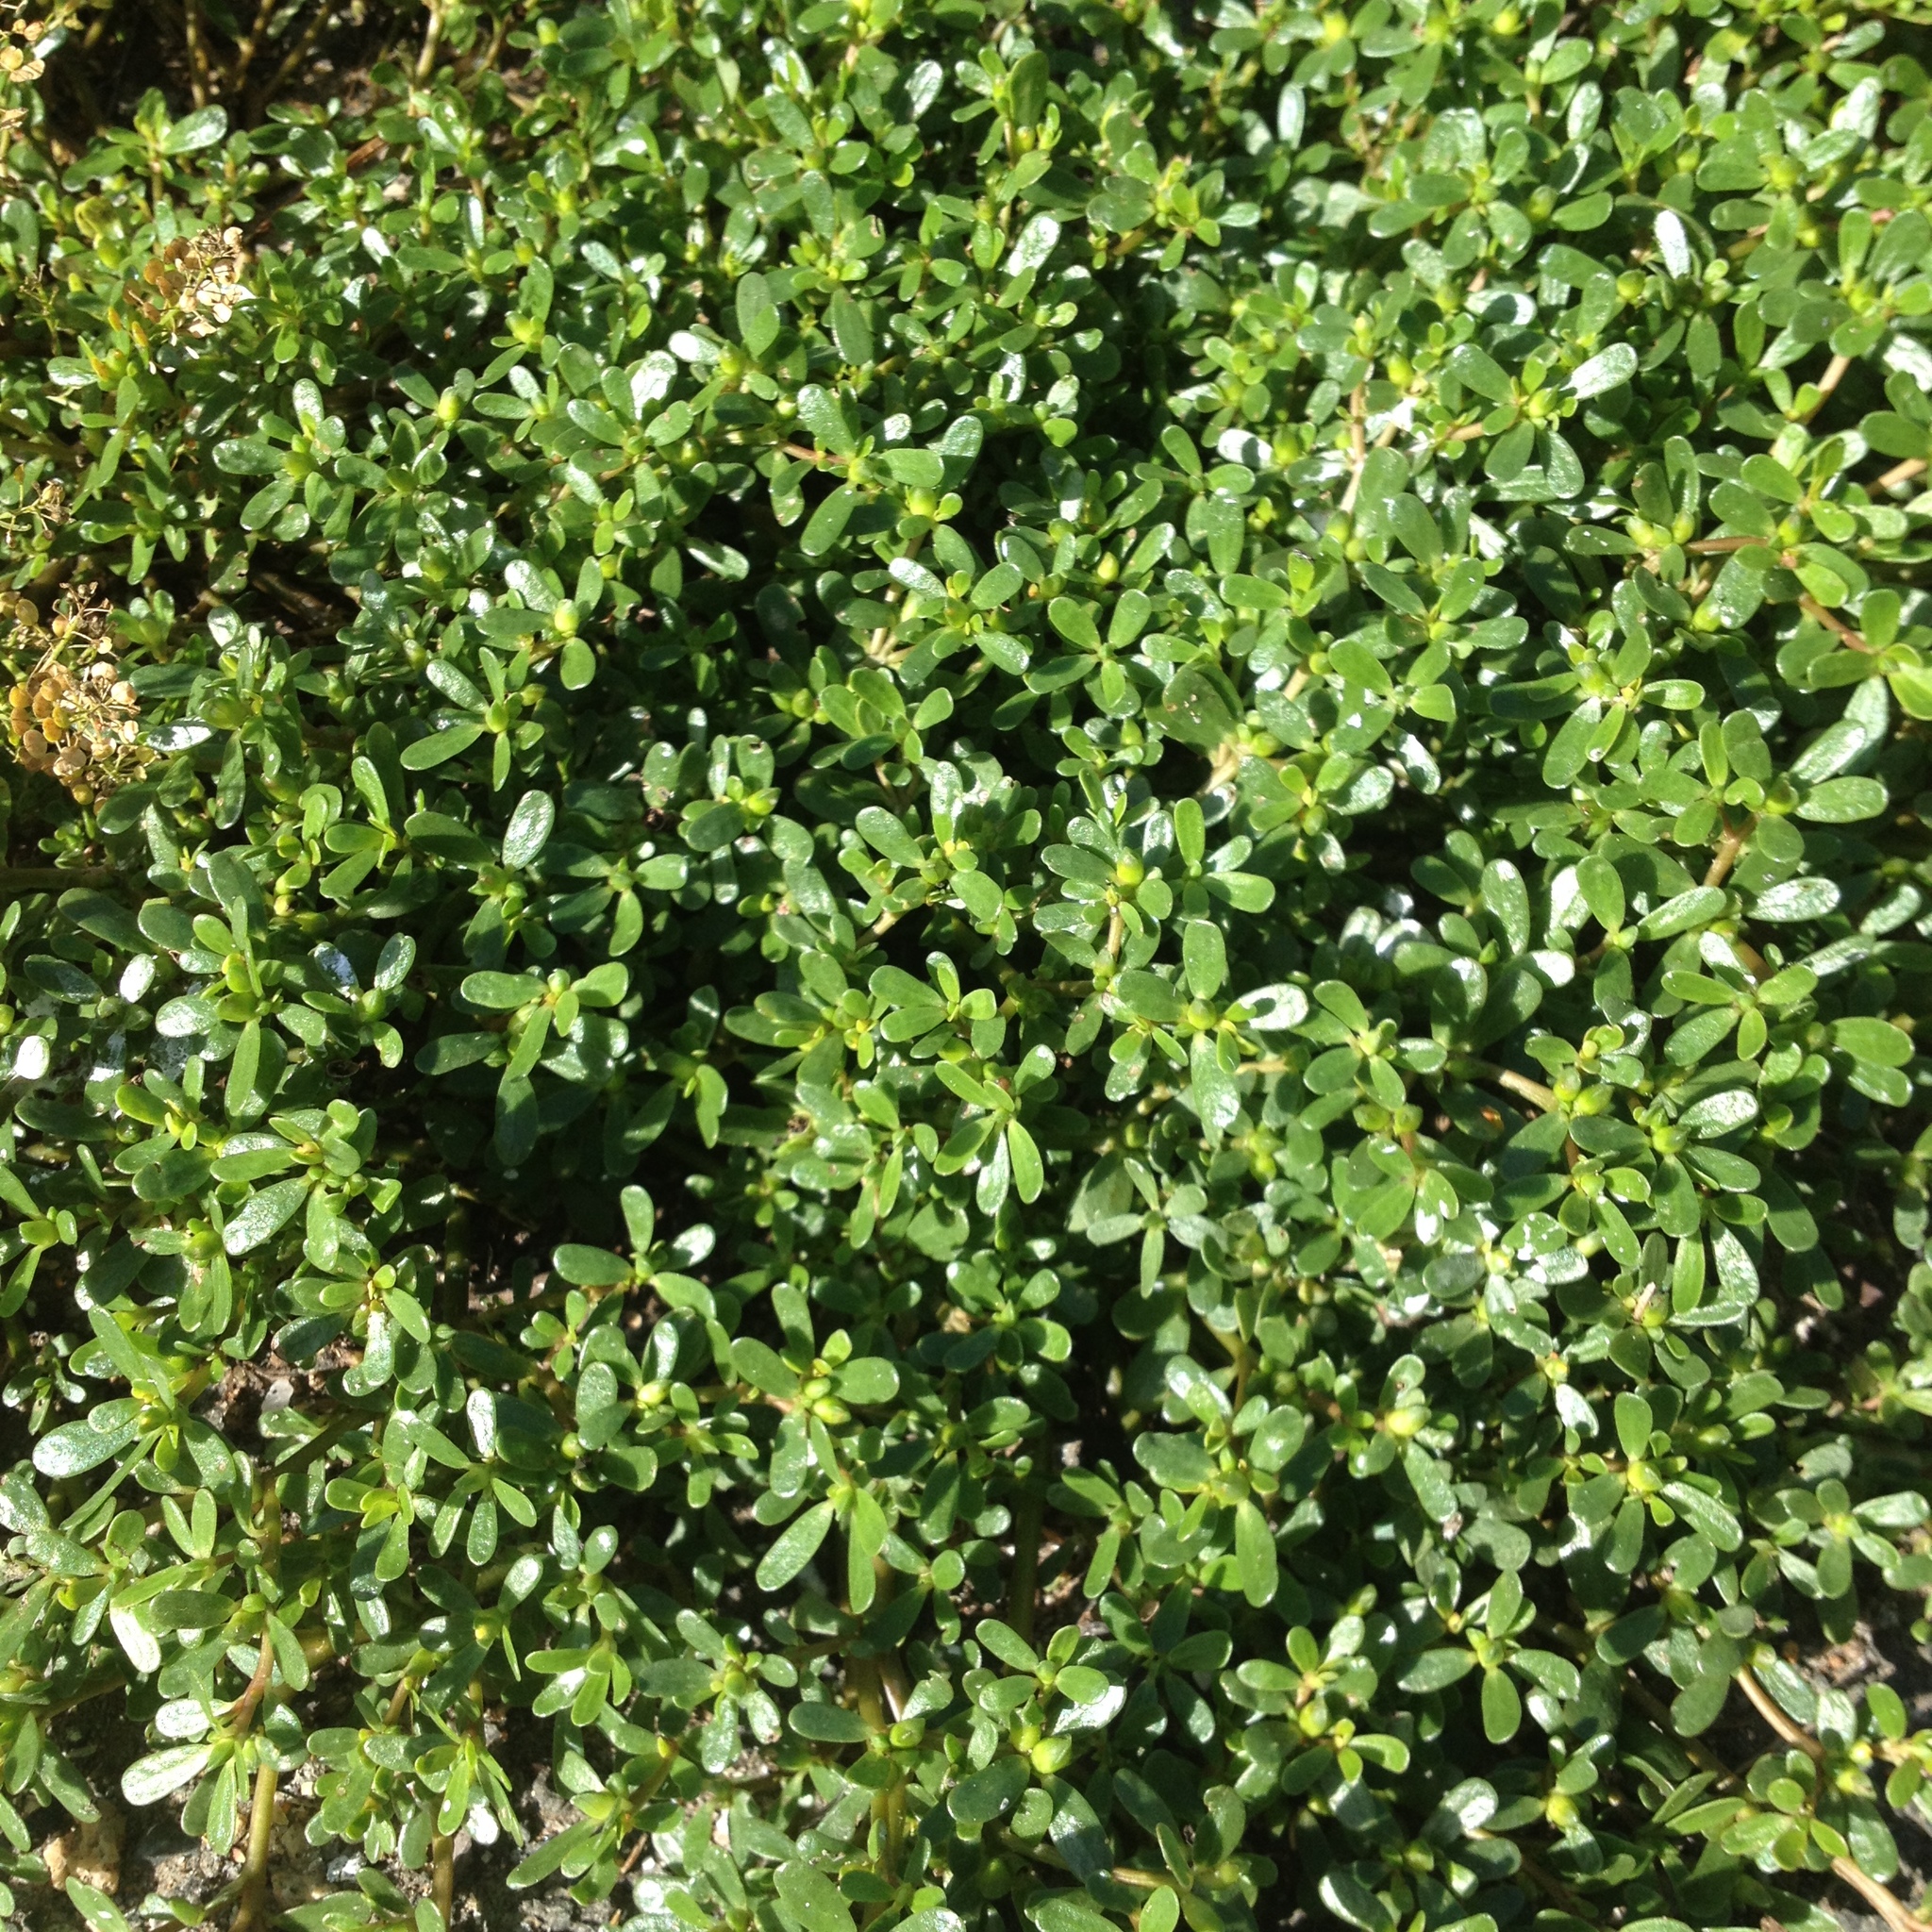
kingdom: Plantae
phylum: Tracheophyta
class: Magnoliopsida
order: Caryophyllales
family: Portulacaceae
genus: Portulaca
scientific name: Portulaca oleracea
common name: Common purslane
